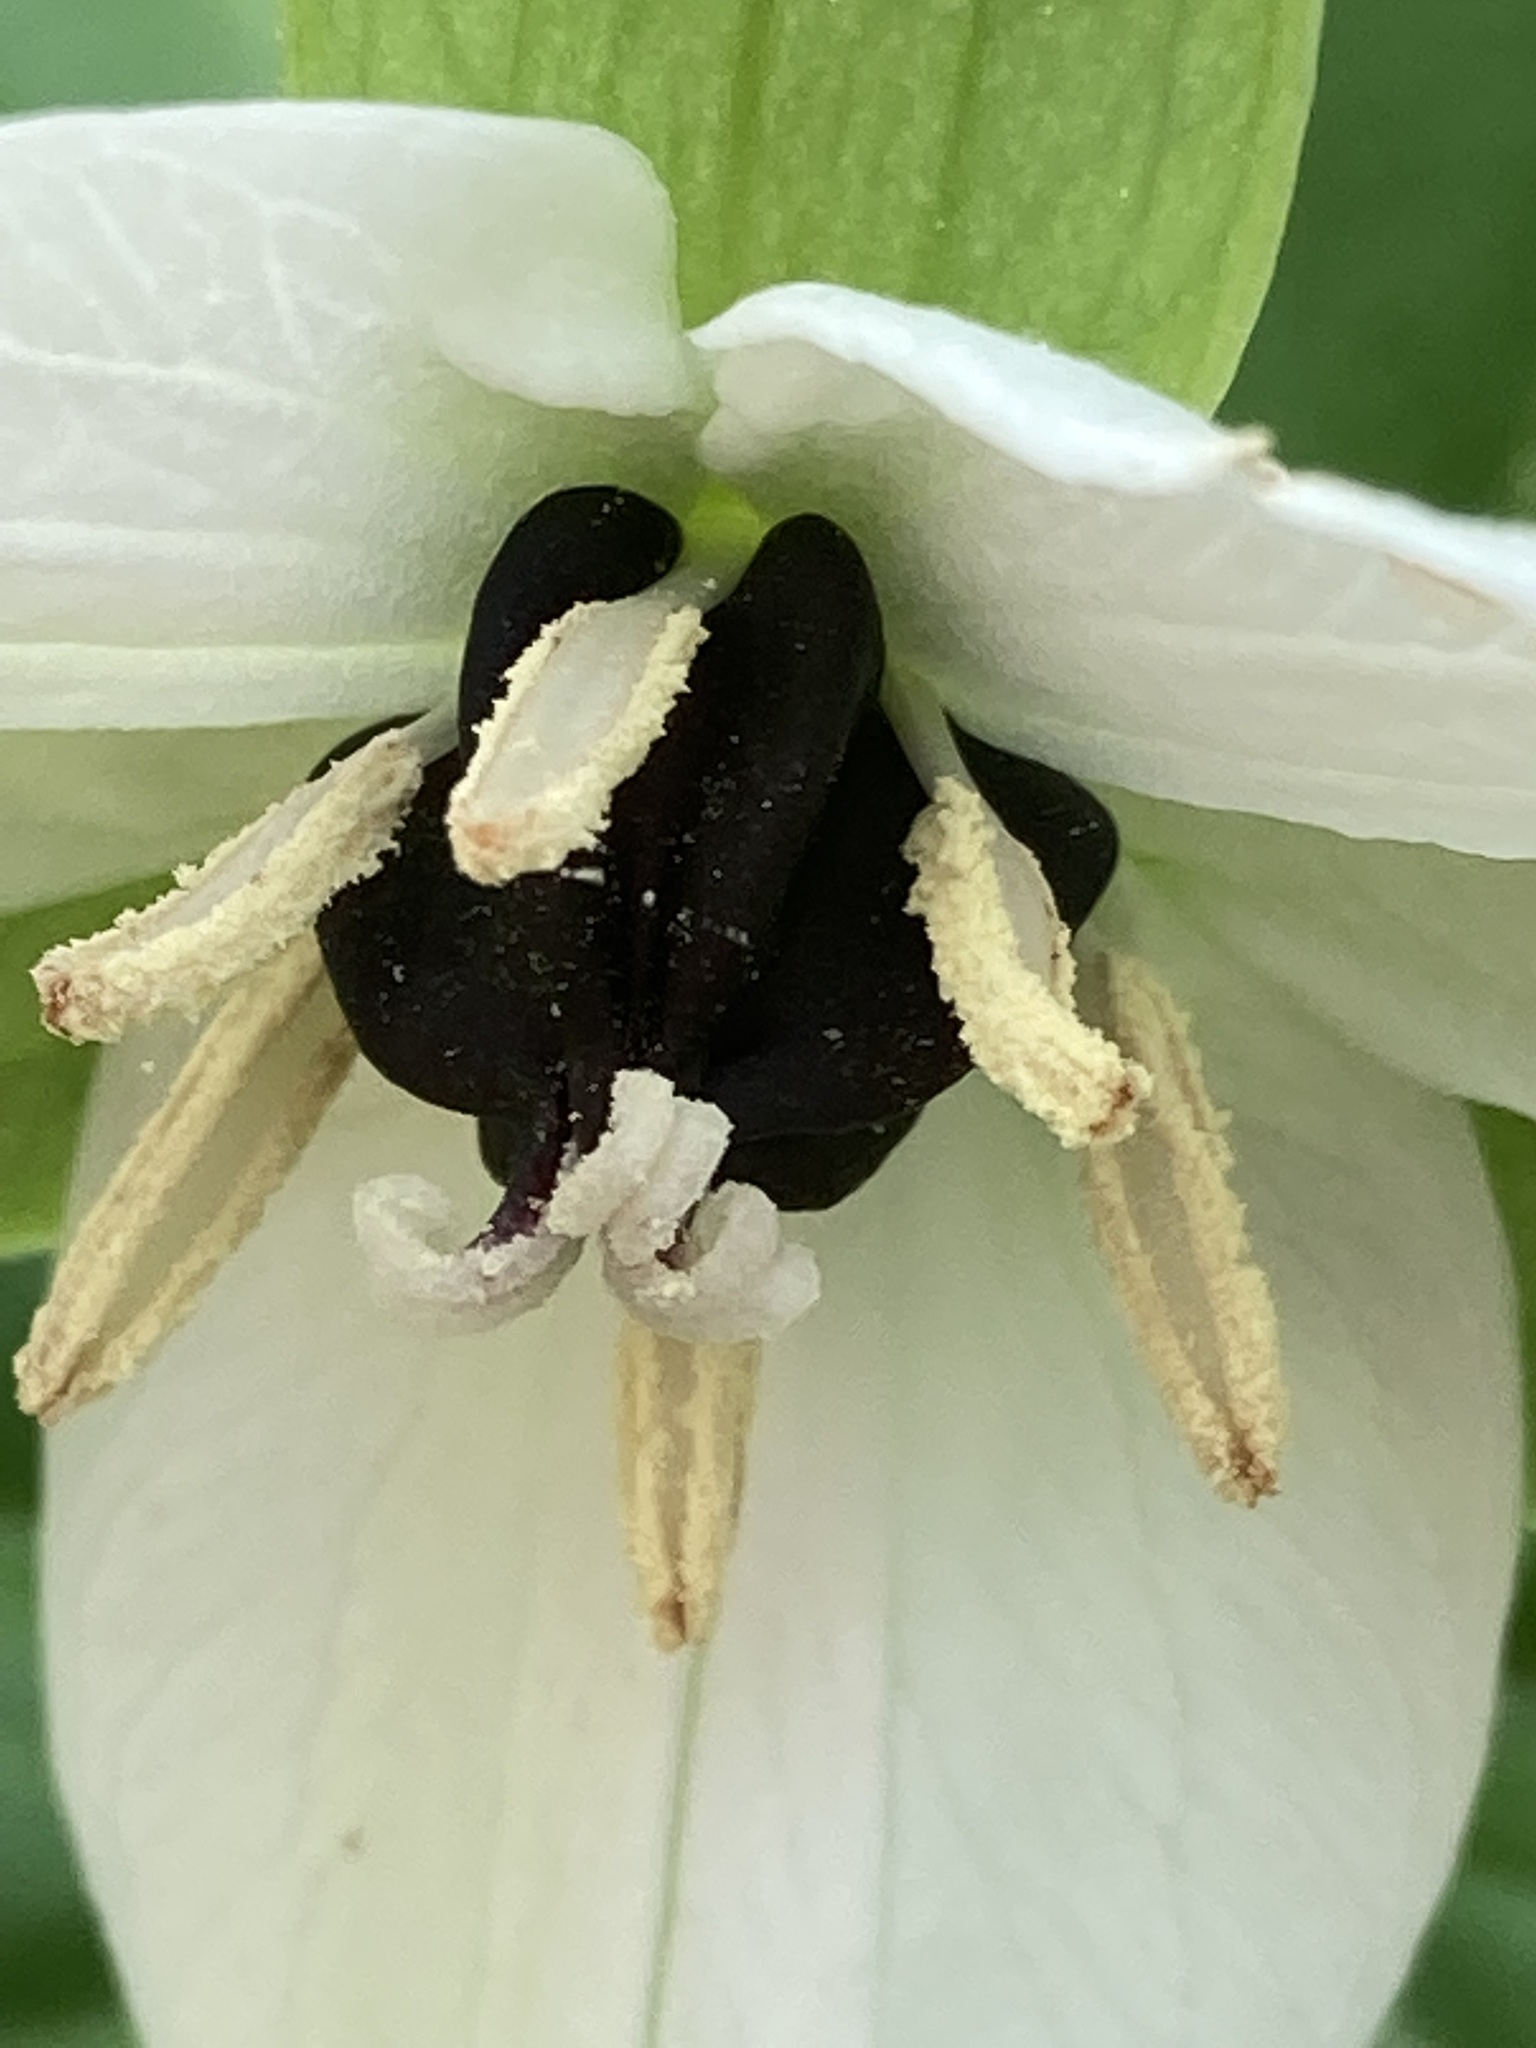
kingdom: Plantae
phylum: Tracheophyta
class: Liliopsida
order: Liliales
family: Melanthiaceae
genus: Trillium
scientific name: Trillium erectum
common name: Purple trillium
